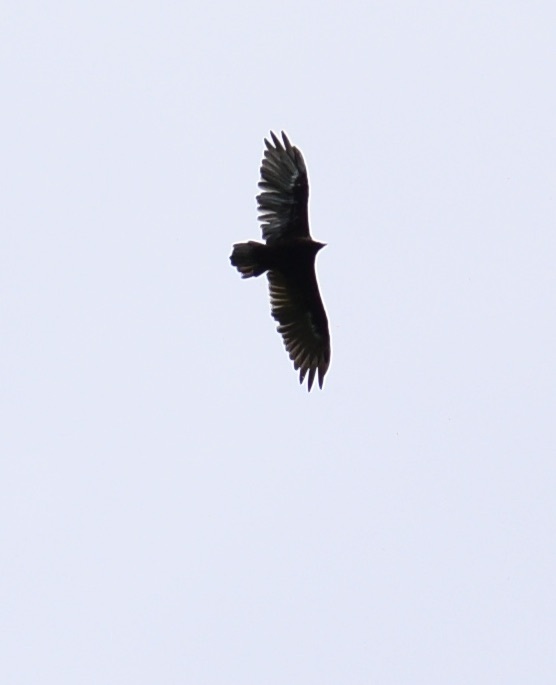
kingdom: Animalia
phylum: Chordata
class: Aves
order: Accipitriformes
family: Cathartidae
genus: Cathartes
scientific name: Cathartes aura
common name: Turkey vulture
